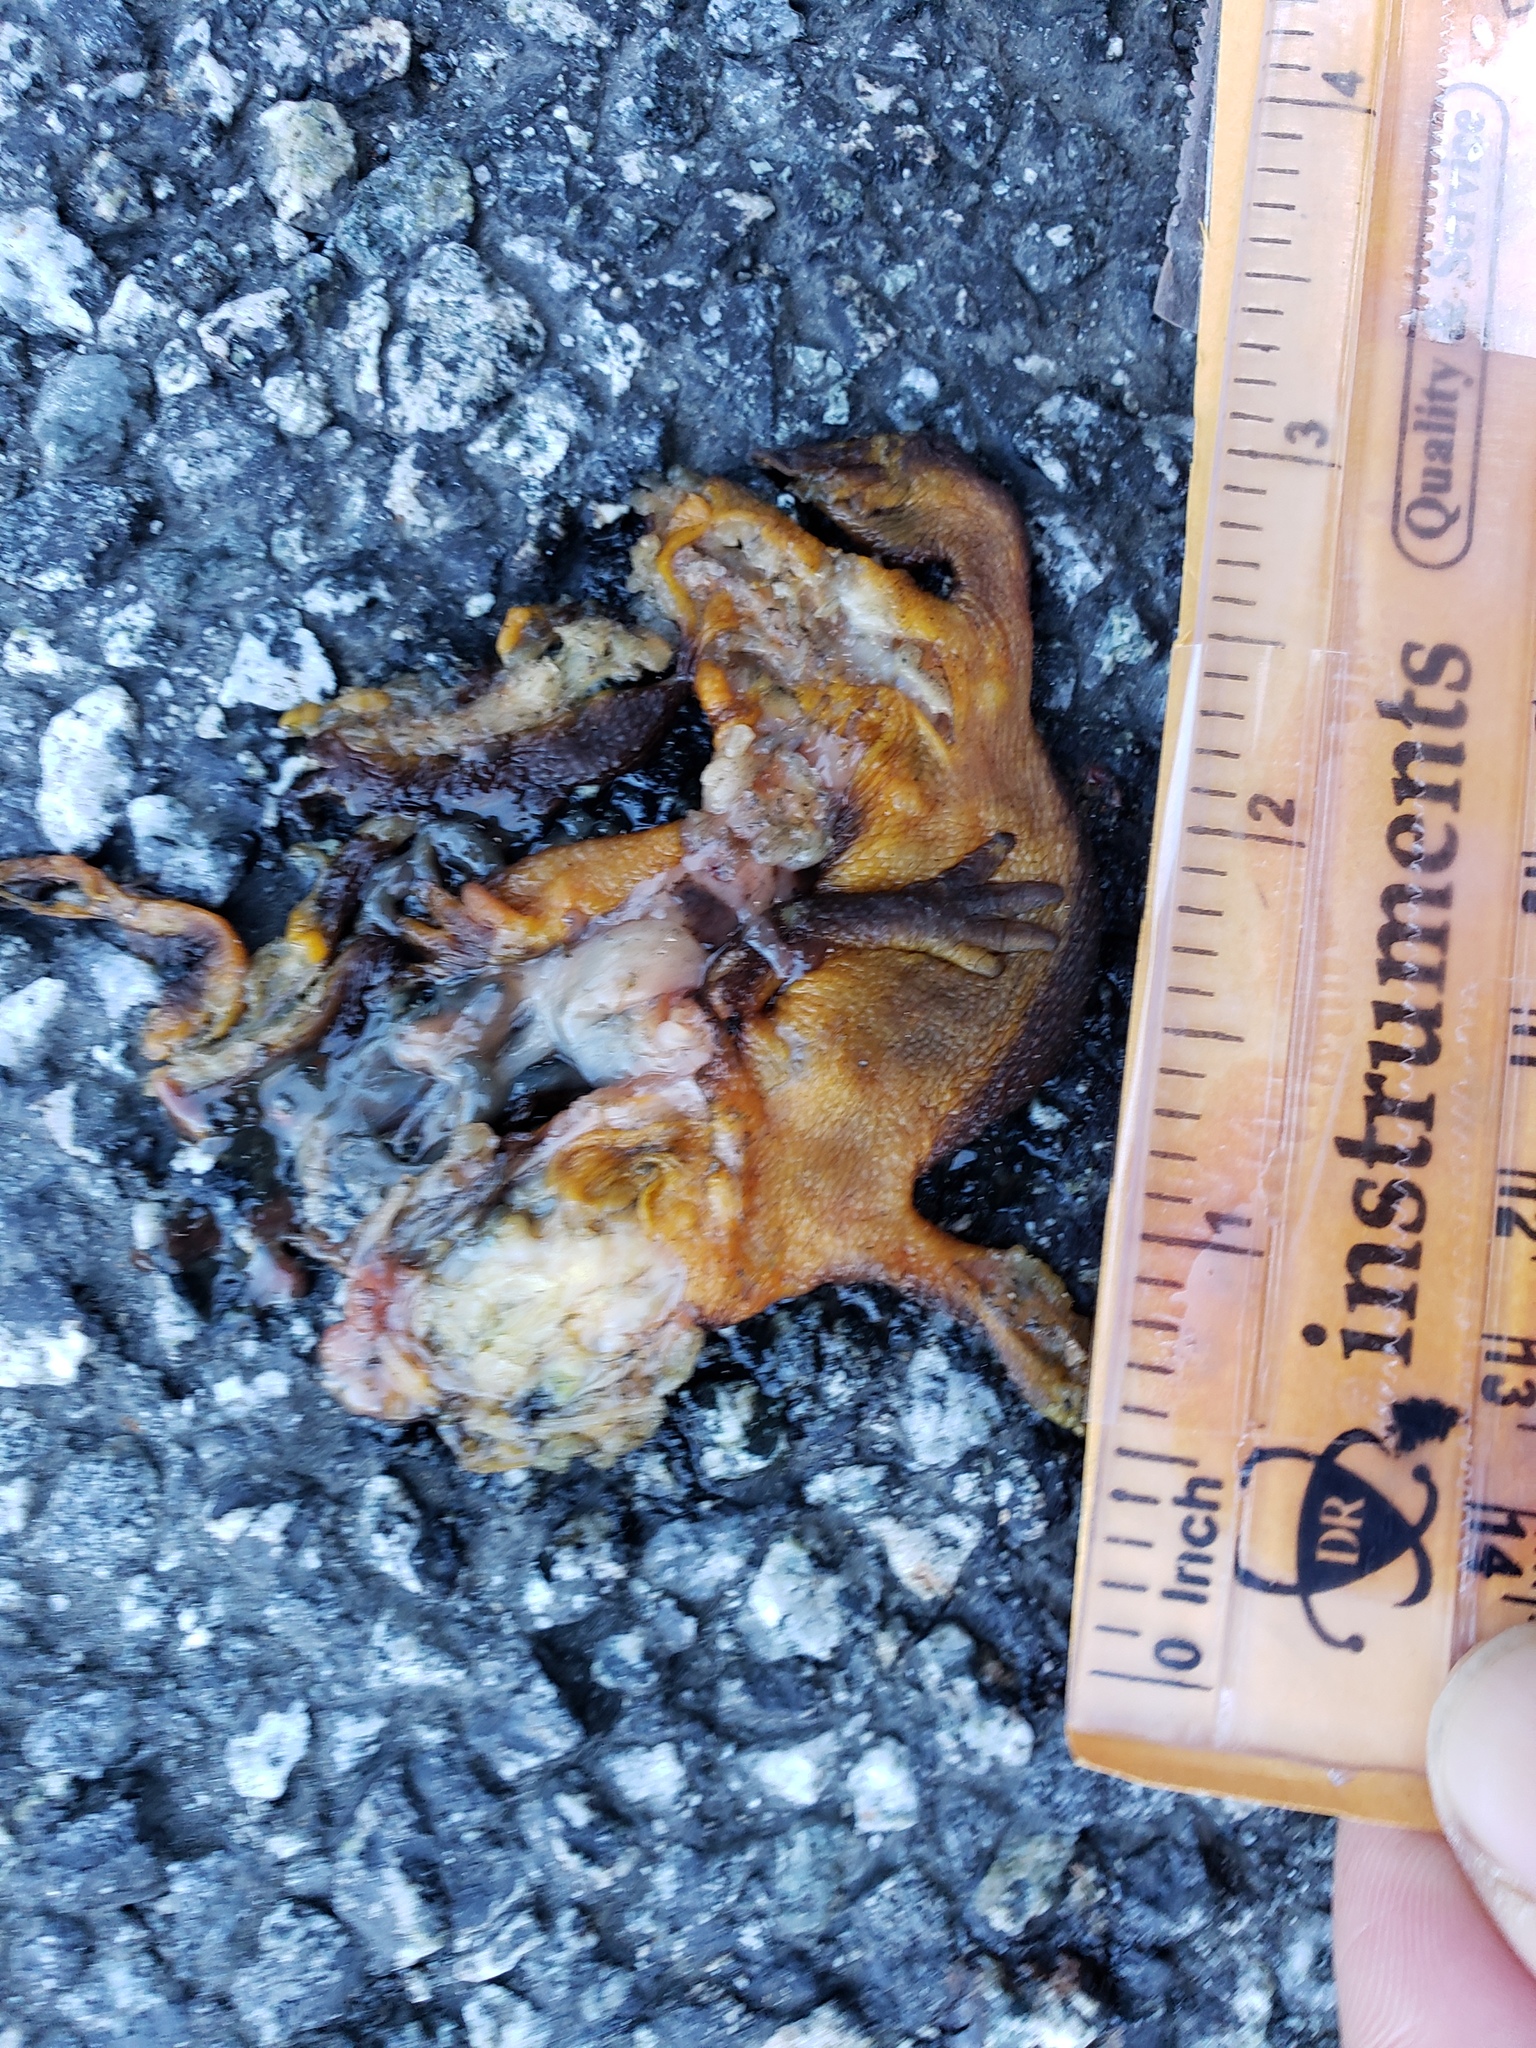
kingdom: Animalia
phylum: Chordata
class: Amphibia
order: Caudata
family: Salamandridae
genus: Taricha
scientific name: Taricha
